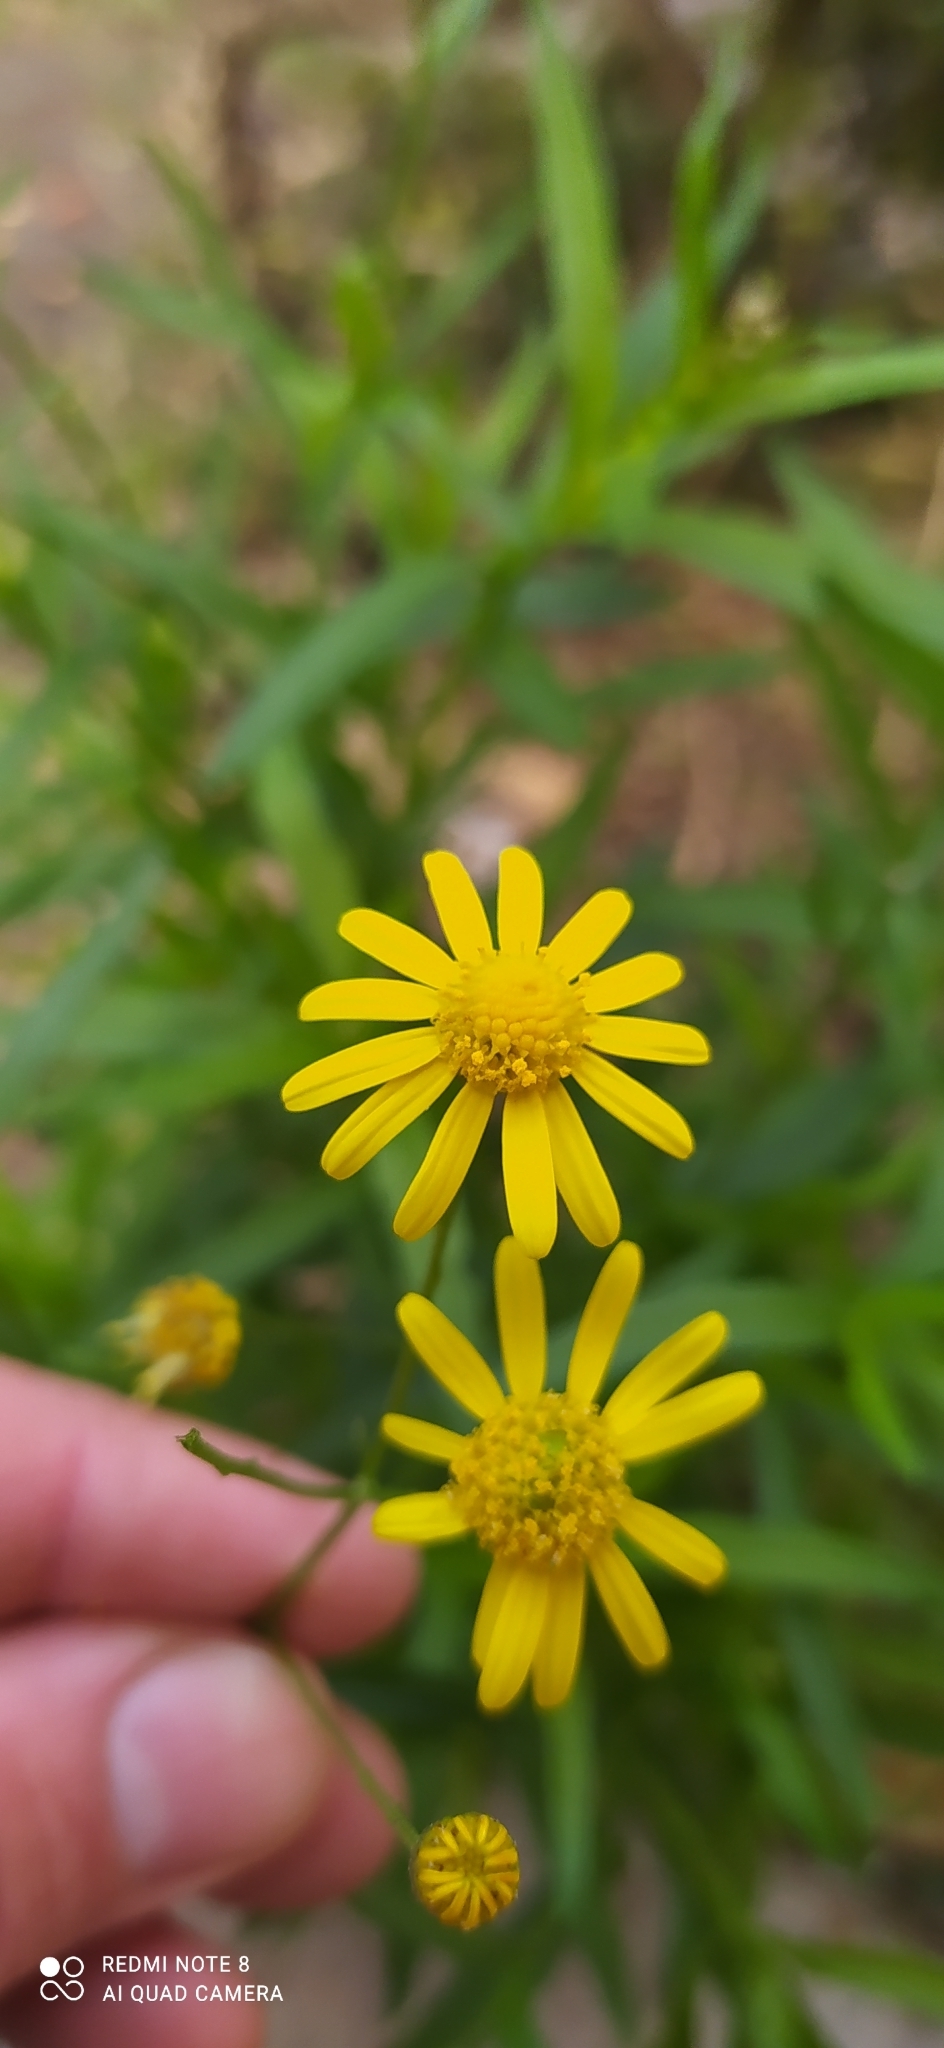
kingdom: Plantae
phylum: Tracheophyta
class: Magnoliopsida
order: Asterales
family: Asteraceae
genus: Senecio
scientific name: Senecio madagascariensis
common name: Madagascar ragwort
